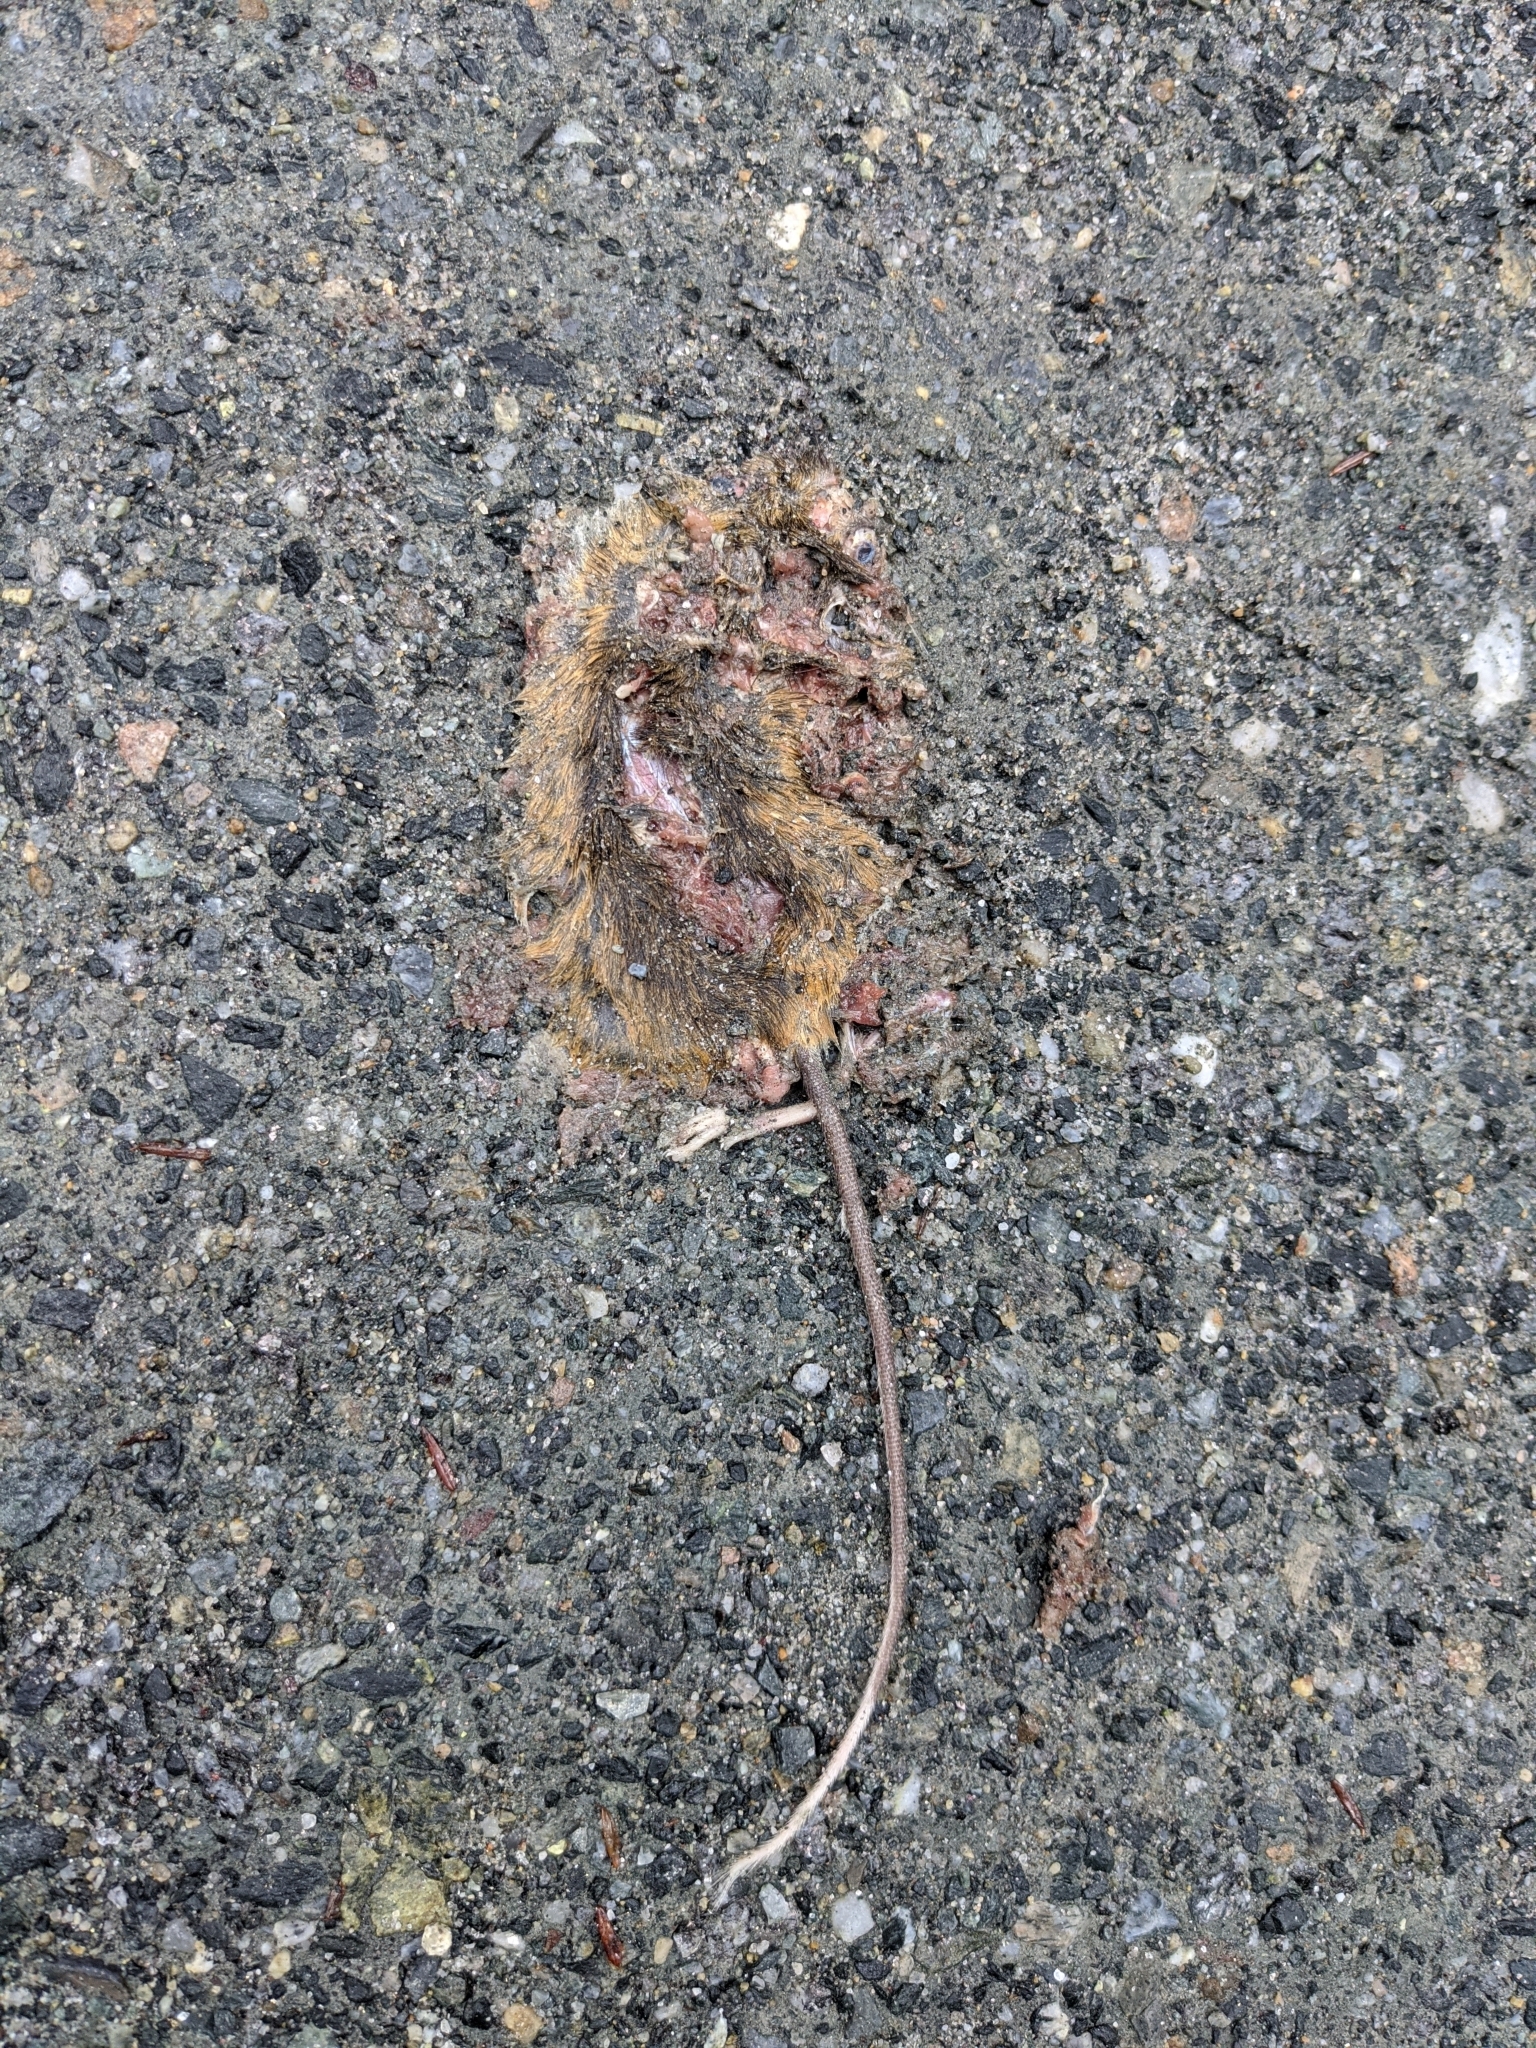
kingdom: Animalia
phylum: Chordata
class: Mammalia
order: Rodentia
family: Dipodidae
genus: Napaeozapus
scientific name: Napaeozapus insignis
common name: Woodland jumping mouse
